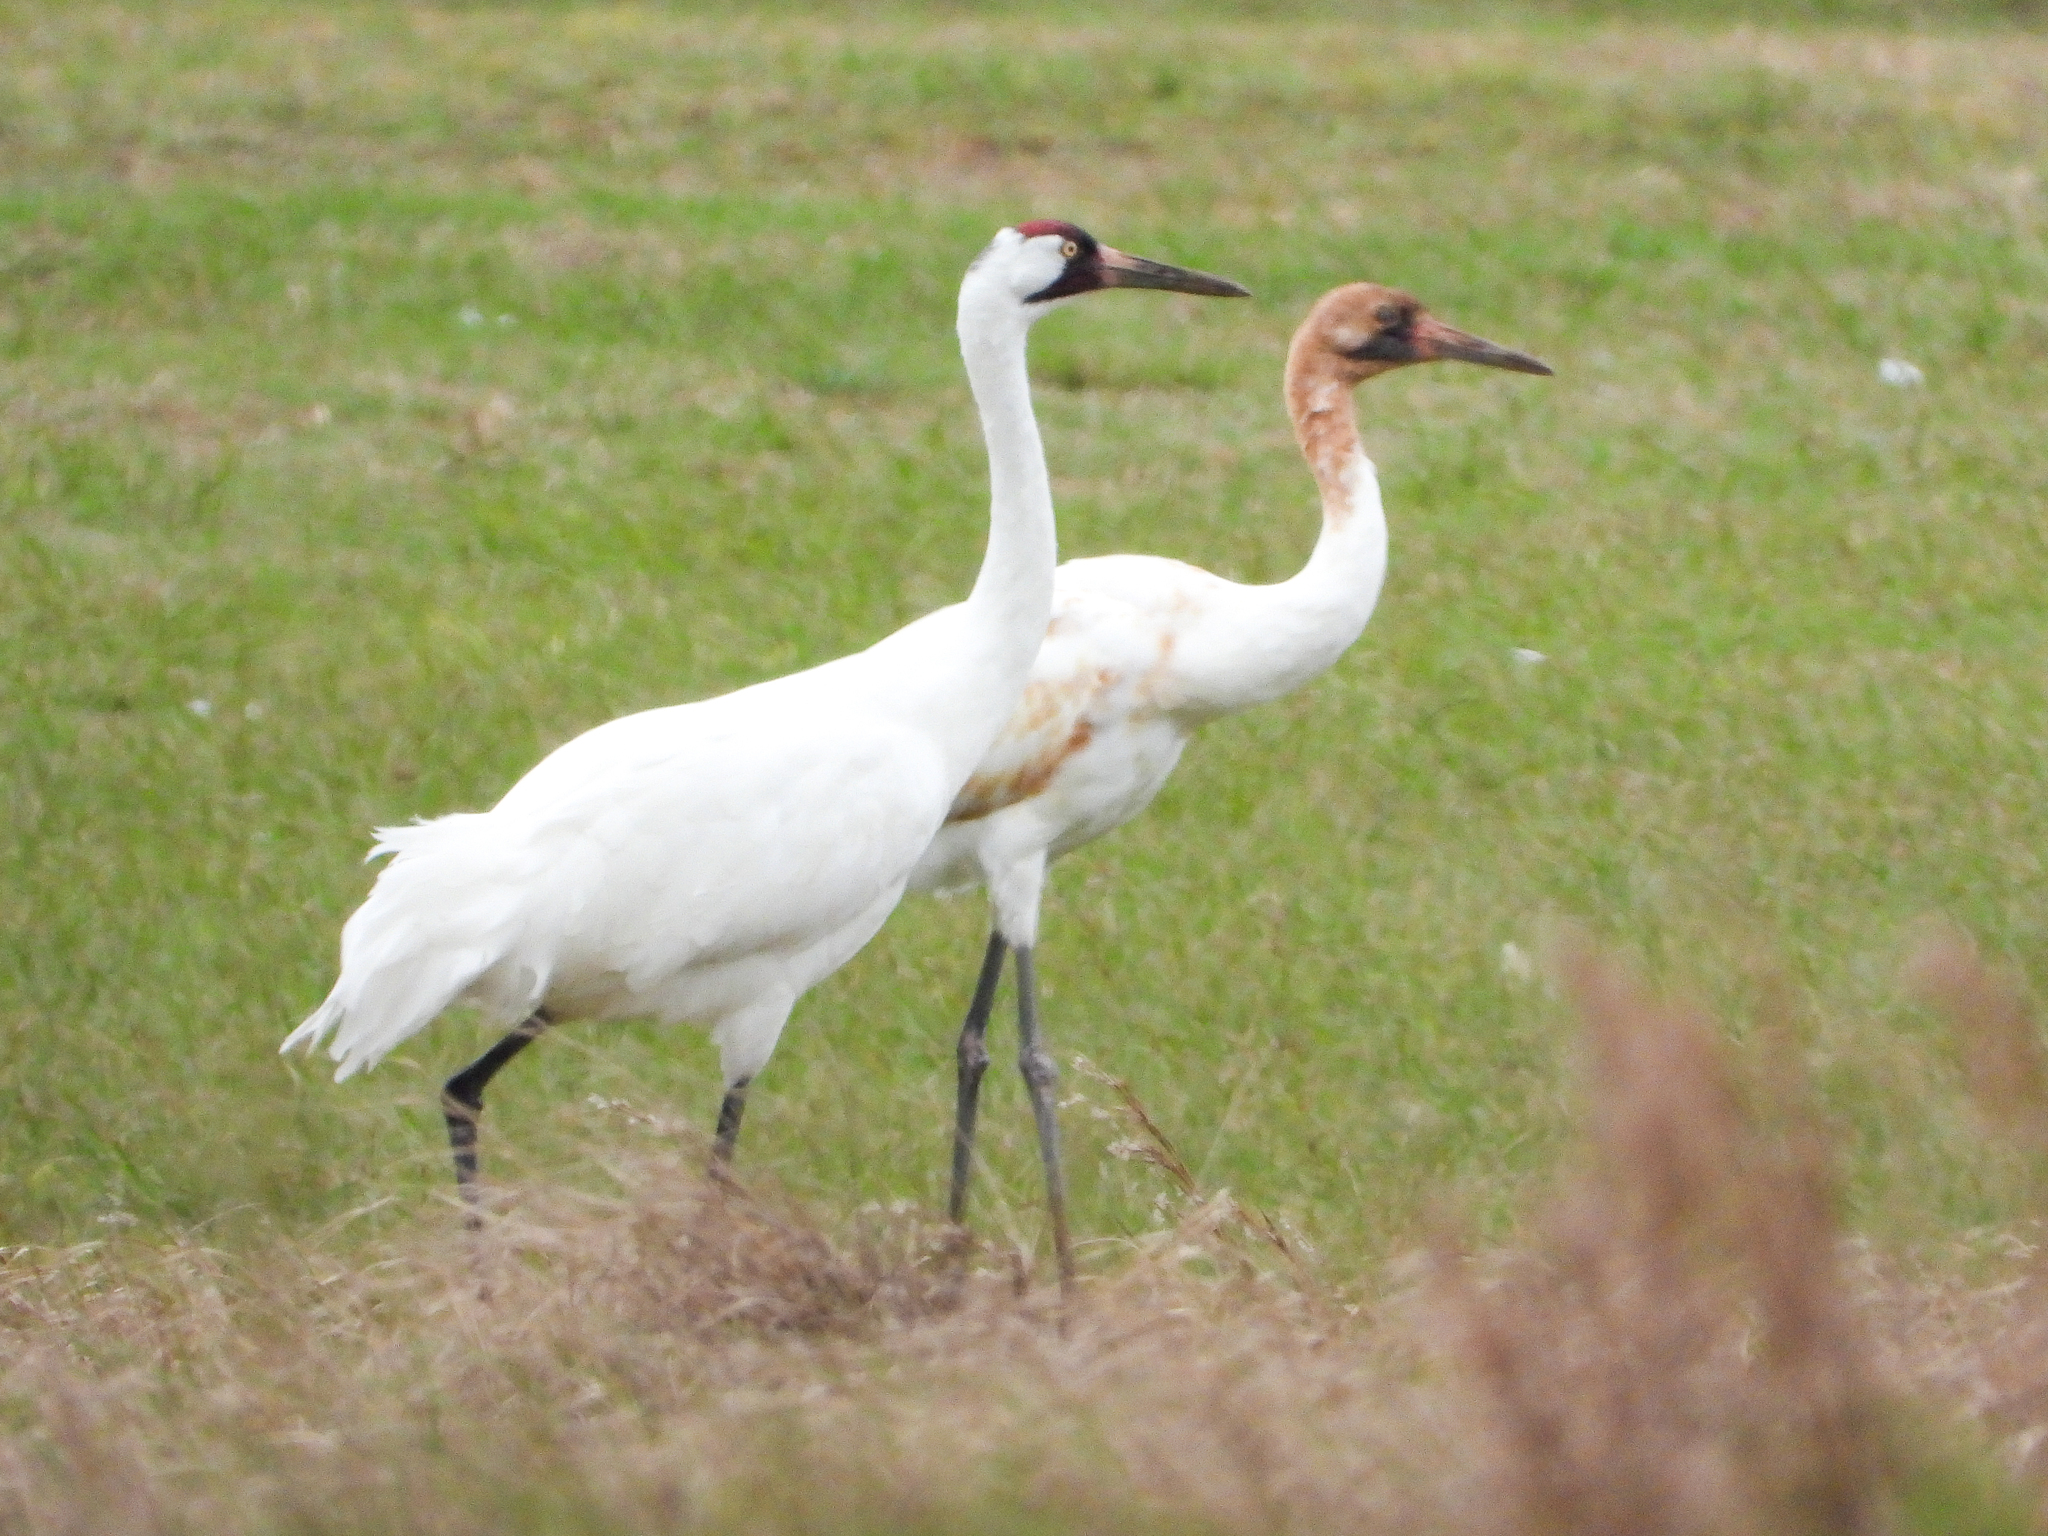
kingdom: Animalia
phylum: Chordata
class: Aves
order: Gruiformes
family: Gruidae
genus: Grus
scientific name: Grus americana
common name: Whooping crane
